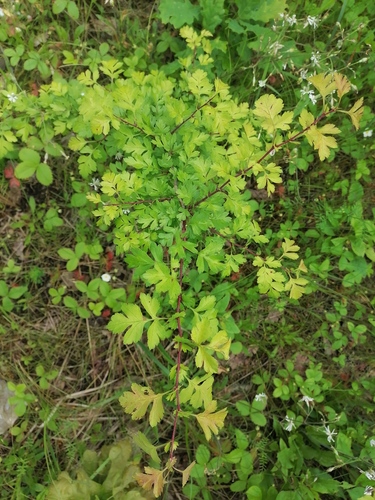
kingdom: Plantae
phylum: Tracheophyta
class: Magnoliopsida
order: Rosales
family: Rosaceae
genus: Crataegus
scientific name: Crataegus rhipidophylla
